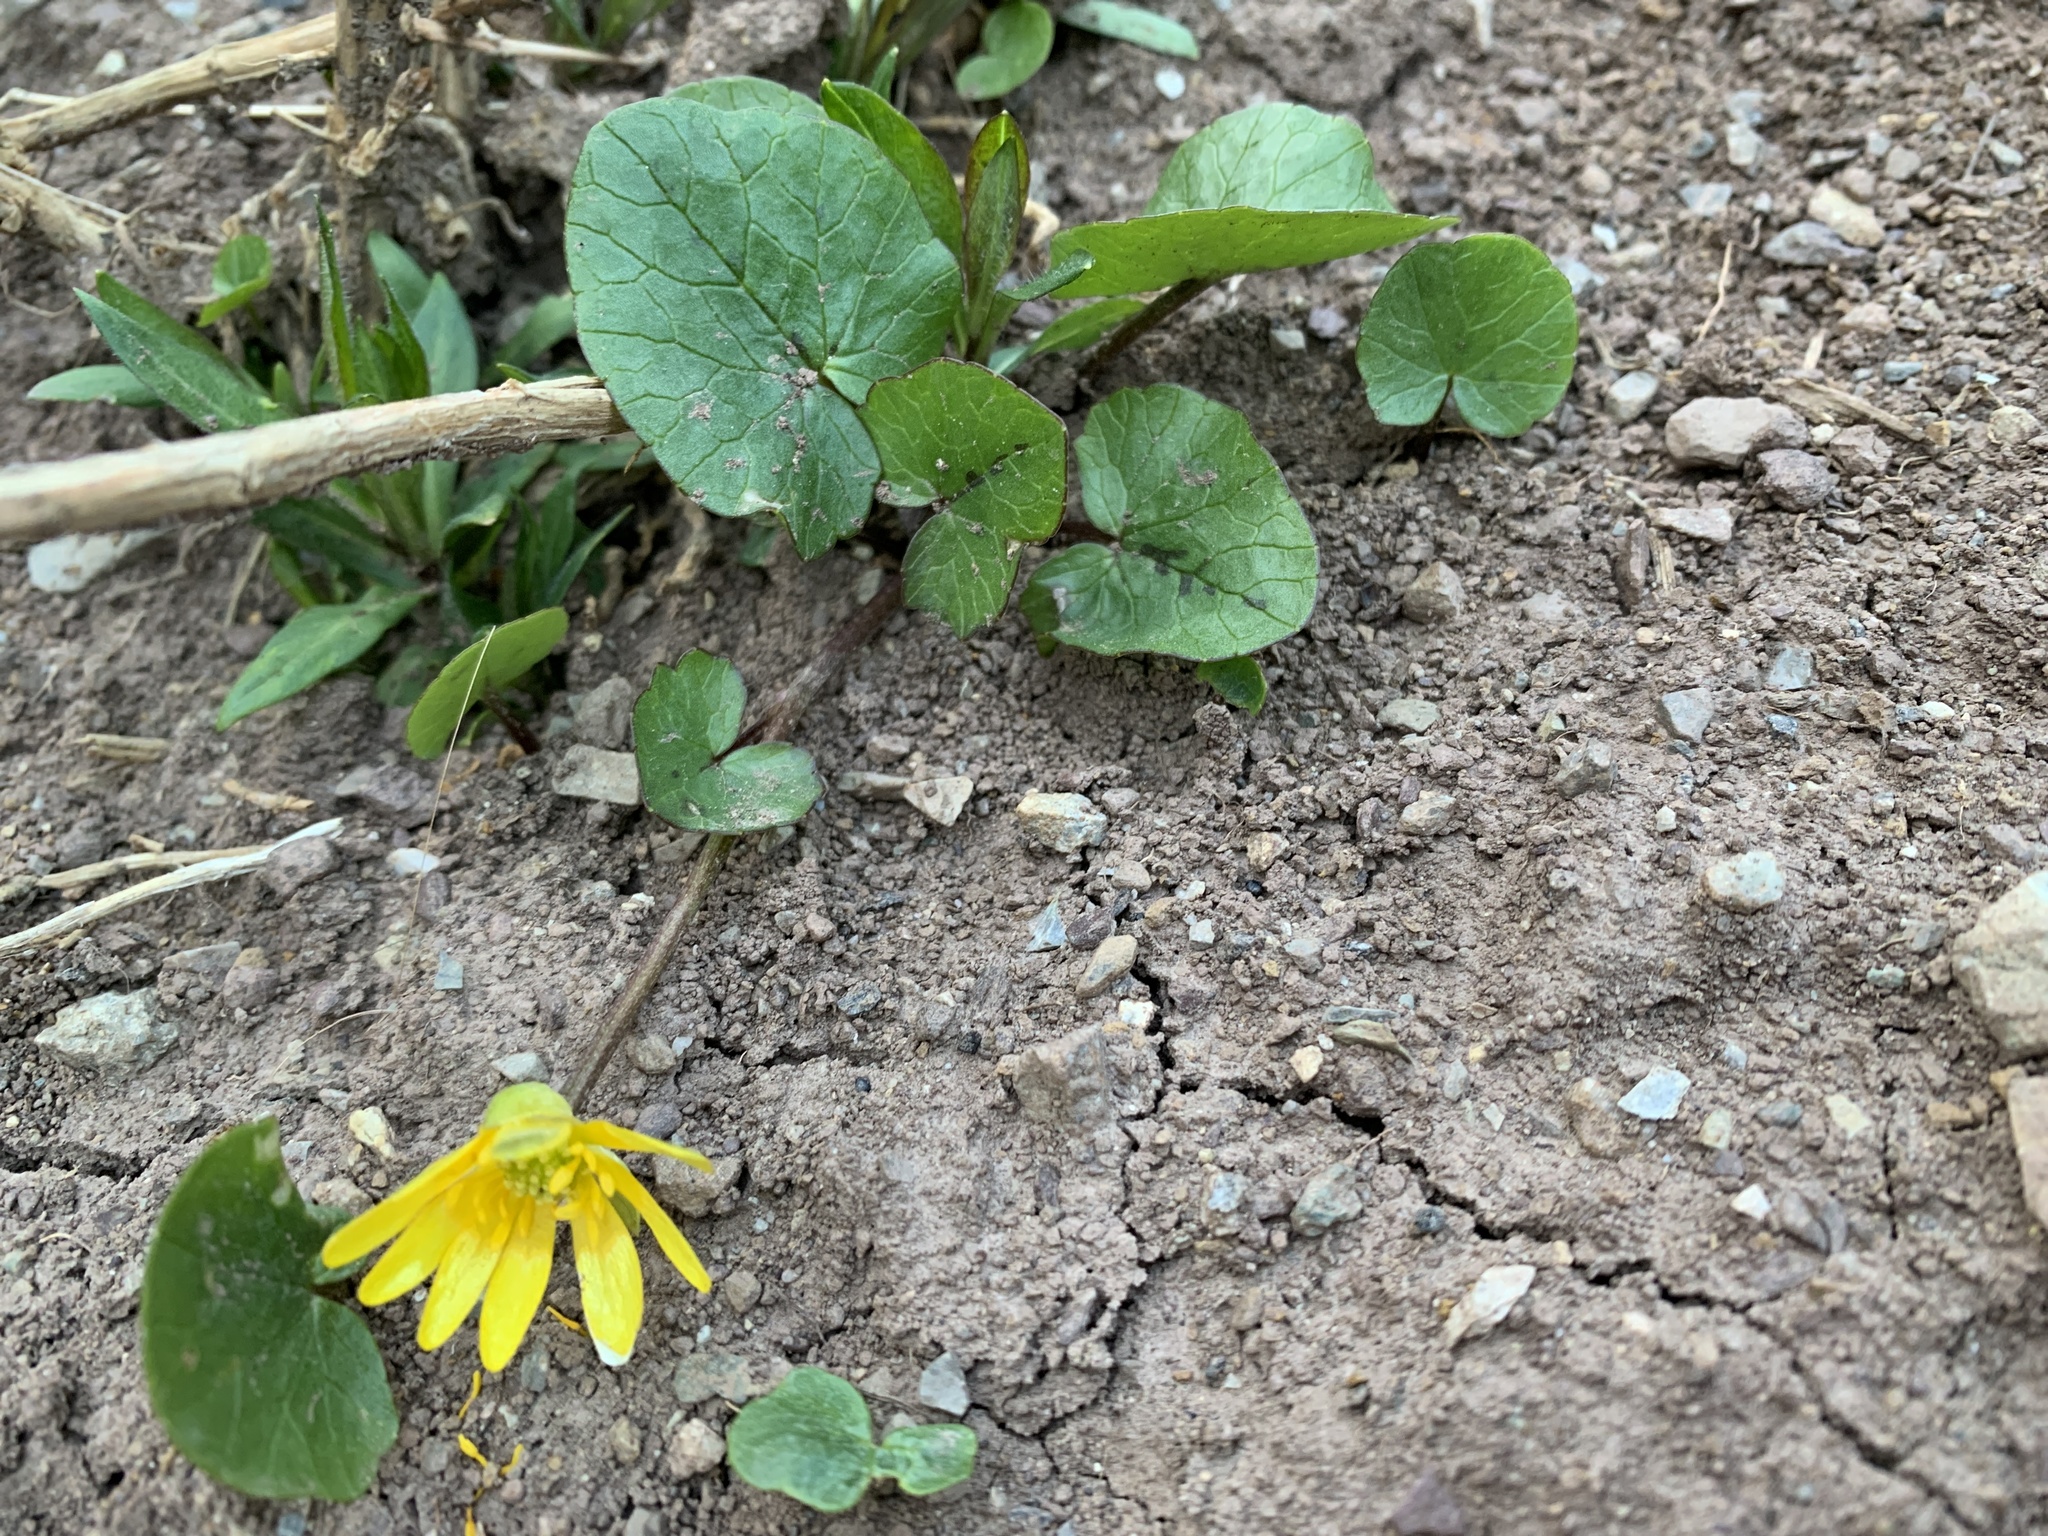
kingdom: Plantae
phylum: Tracheophyta
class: Magnoliopsida
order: Ranunculales
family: Ranunculaceae
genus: Ficaria
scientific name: Ficaria verna
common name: Lesser celandine
